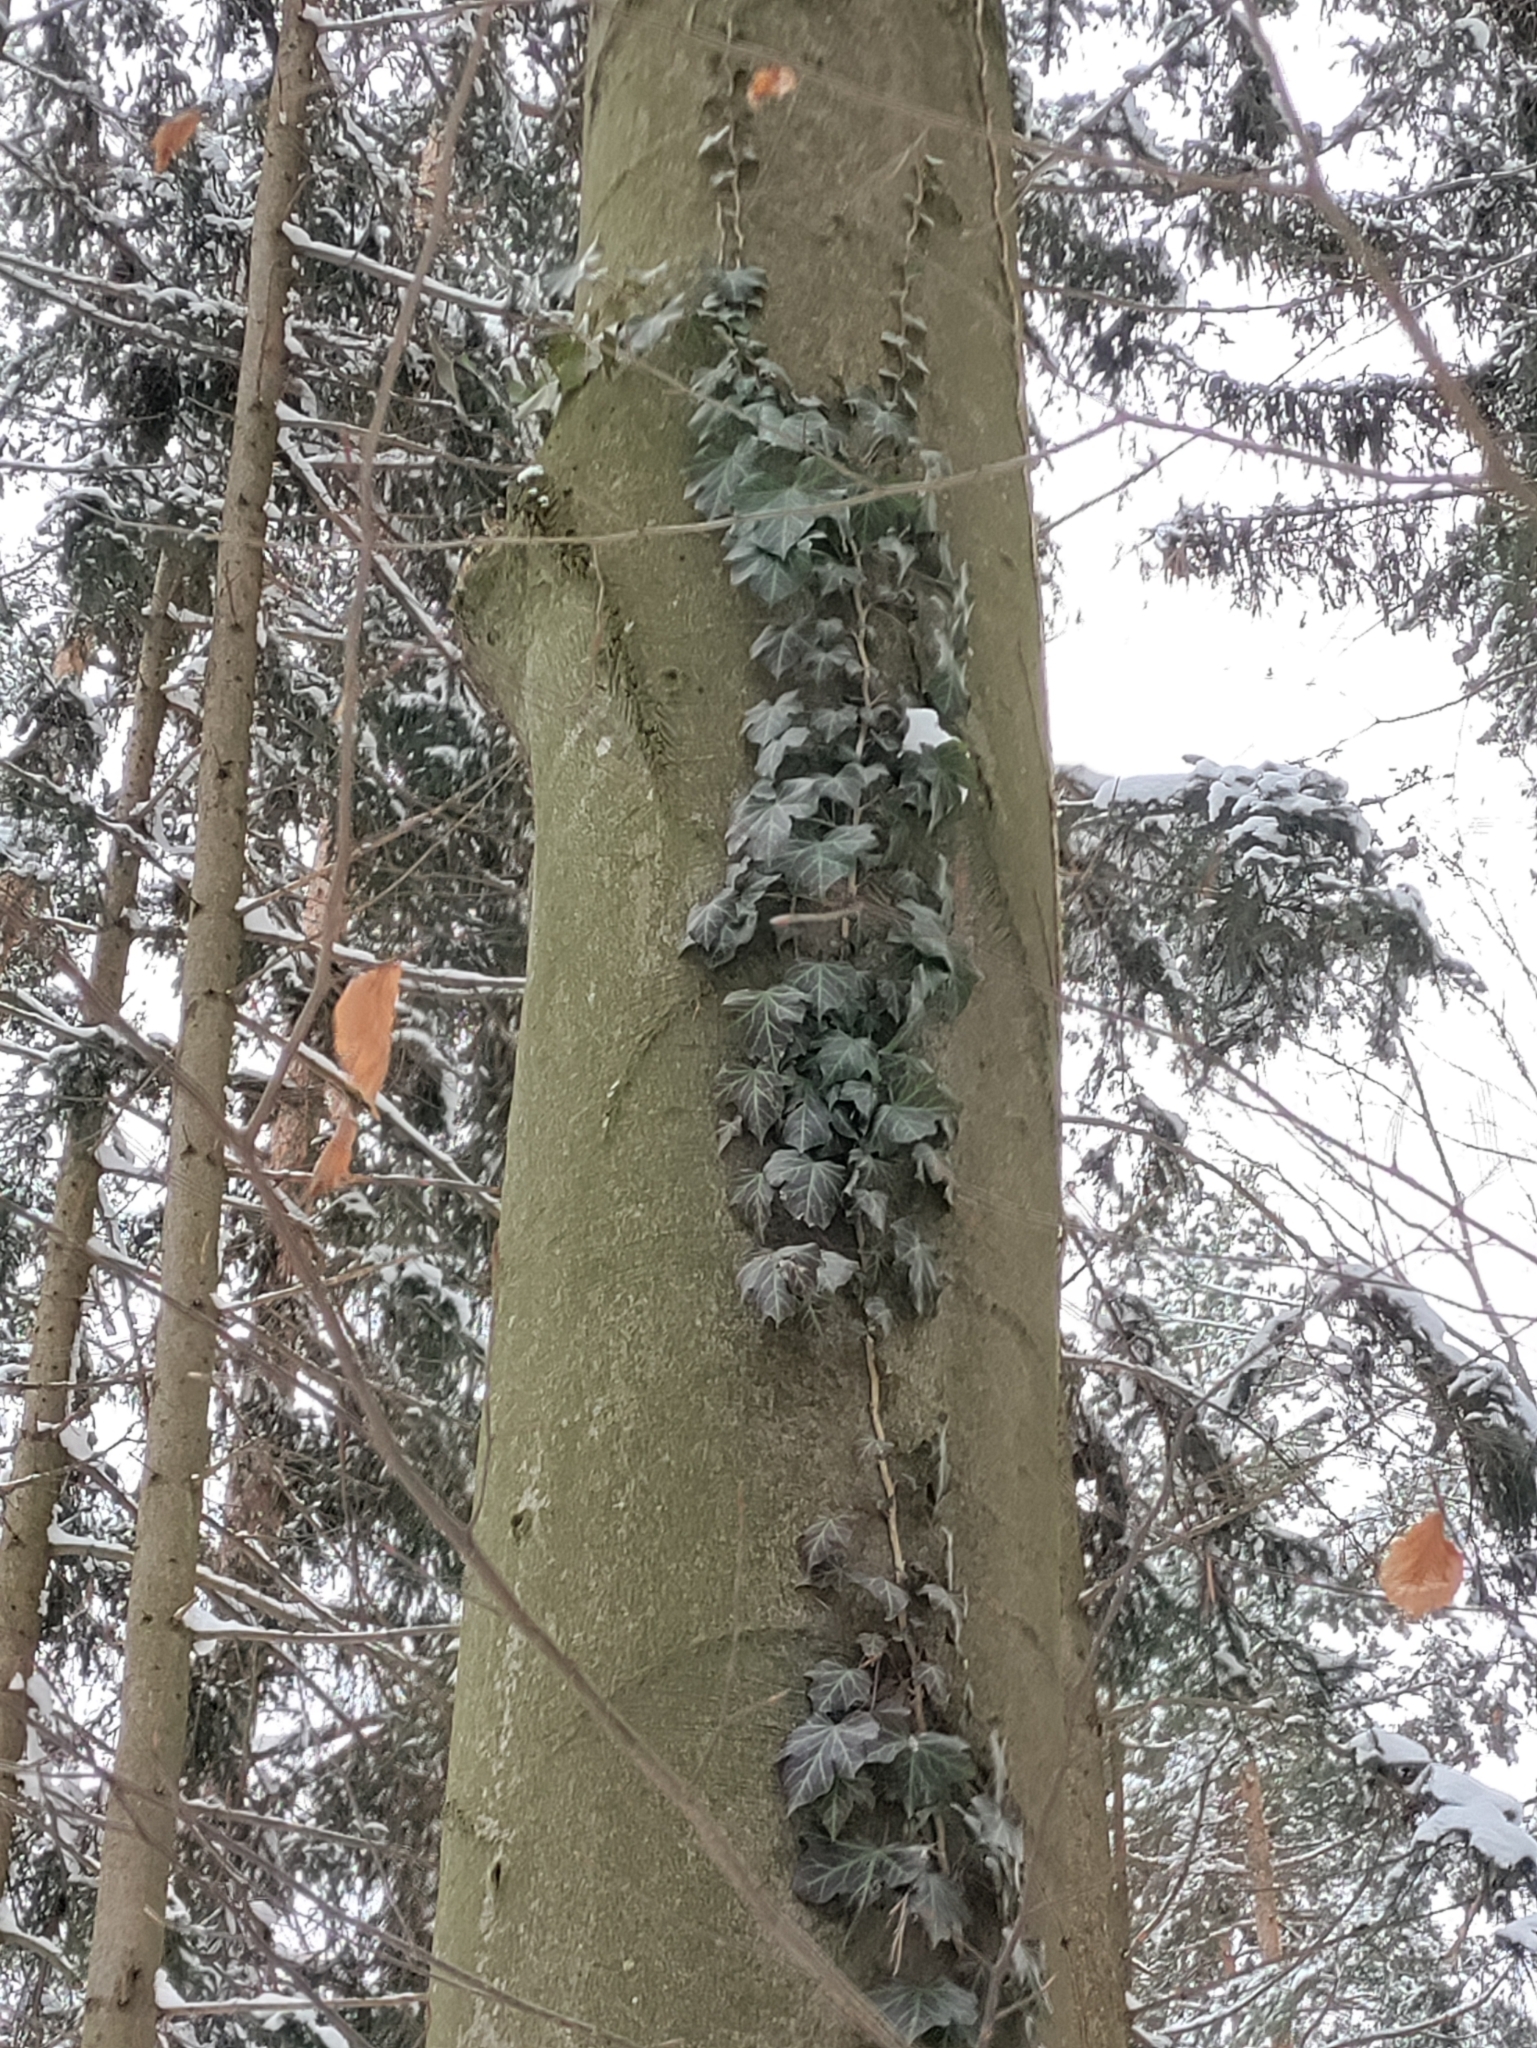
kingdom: Plantae
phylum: Tracheophyta
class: Magnoliopsida
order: Apiales
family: Araliaceae
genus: Hedera
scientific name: Hedera helix
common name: Ivy
